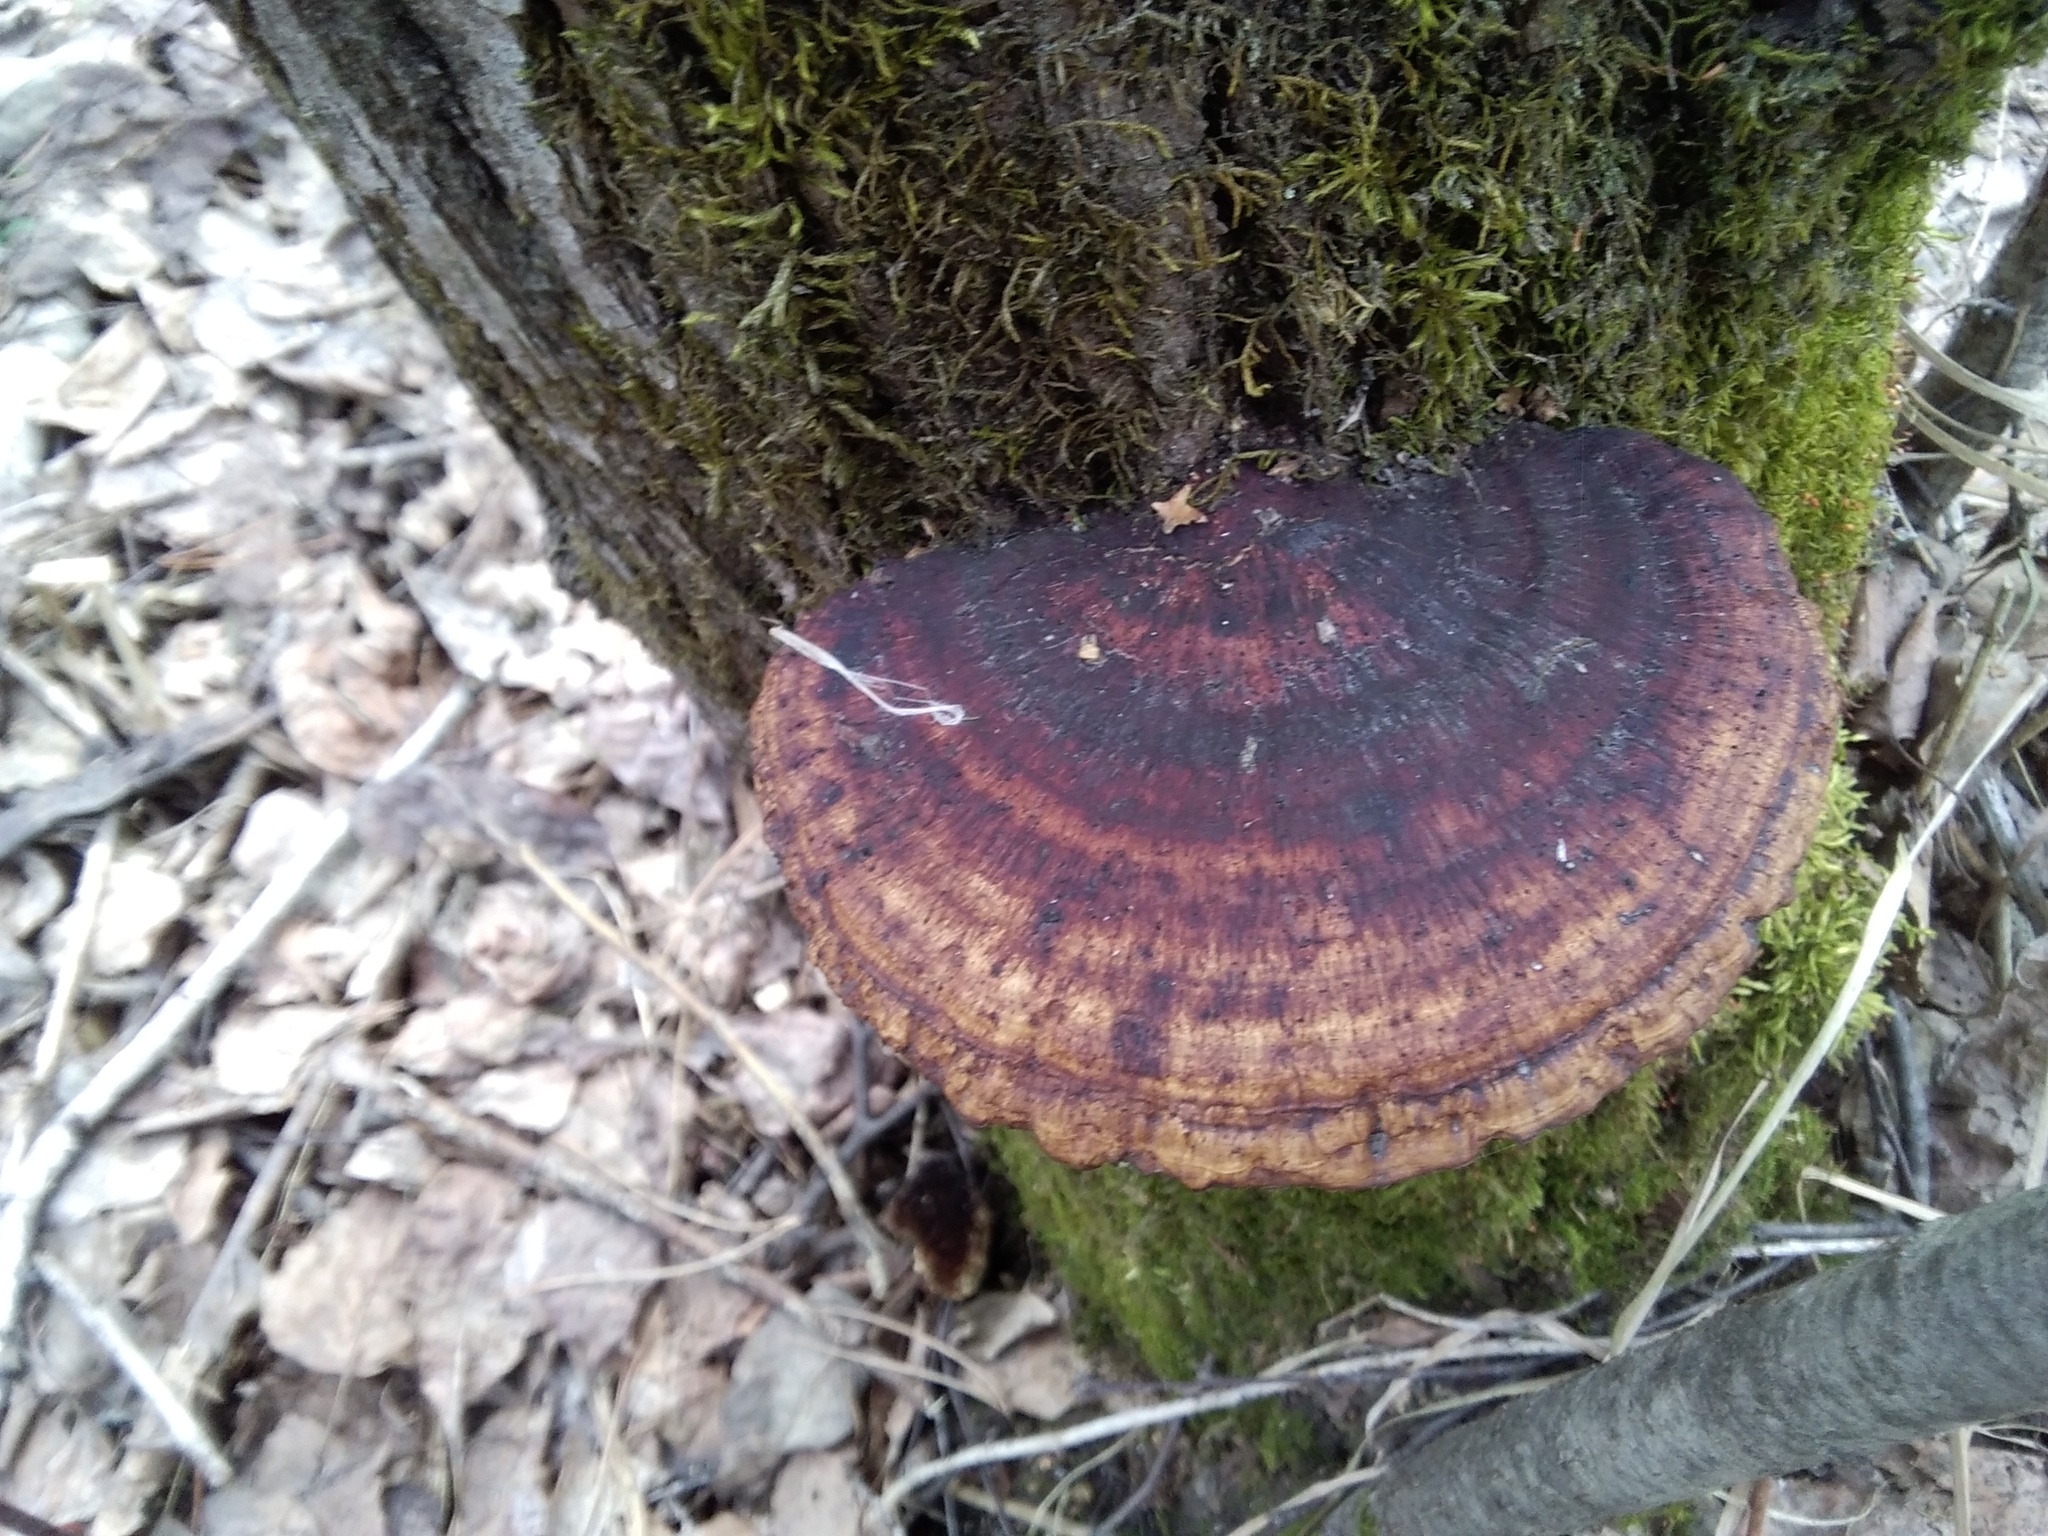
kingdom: Fungi
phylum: Basidiomycota
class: Agaricomycetes
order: Polyporales
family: Polyporaceae
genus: Daedaleopsis
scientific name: Daedaleopsis confragosa
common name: Blushing bracket
